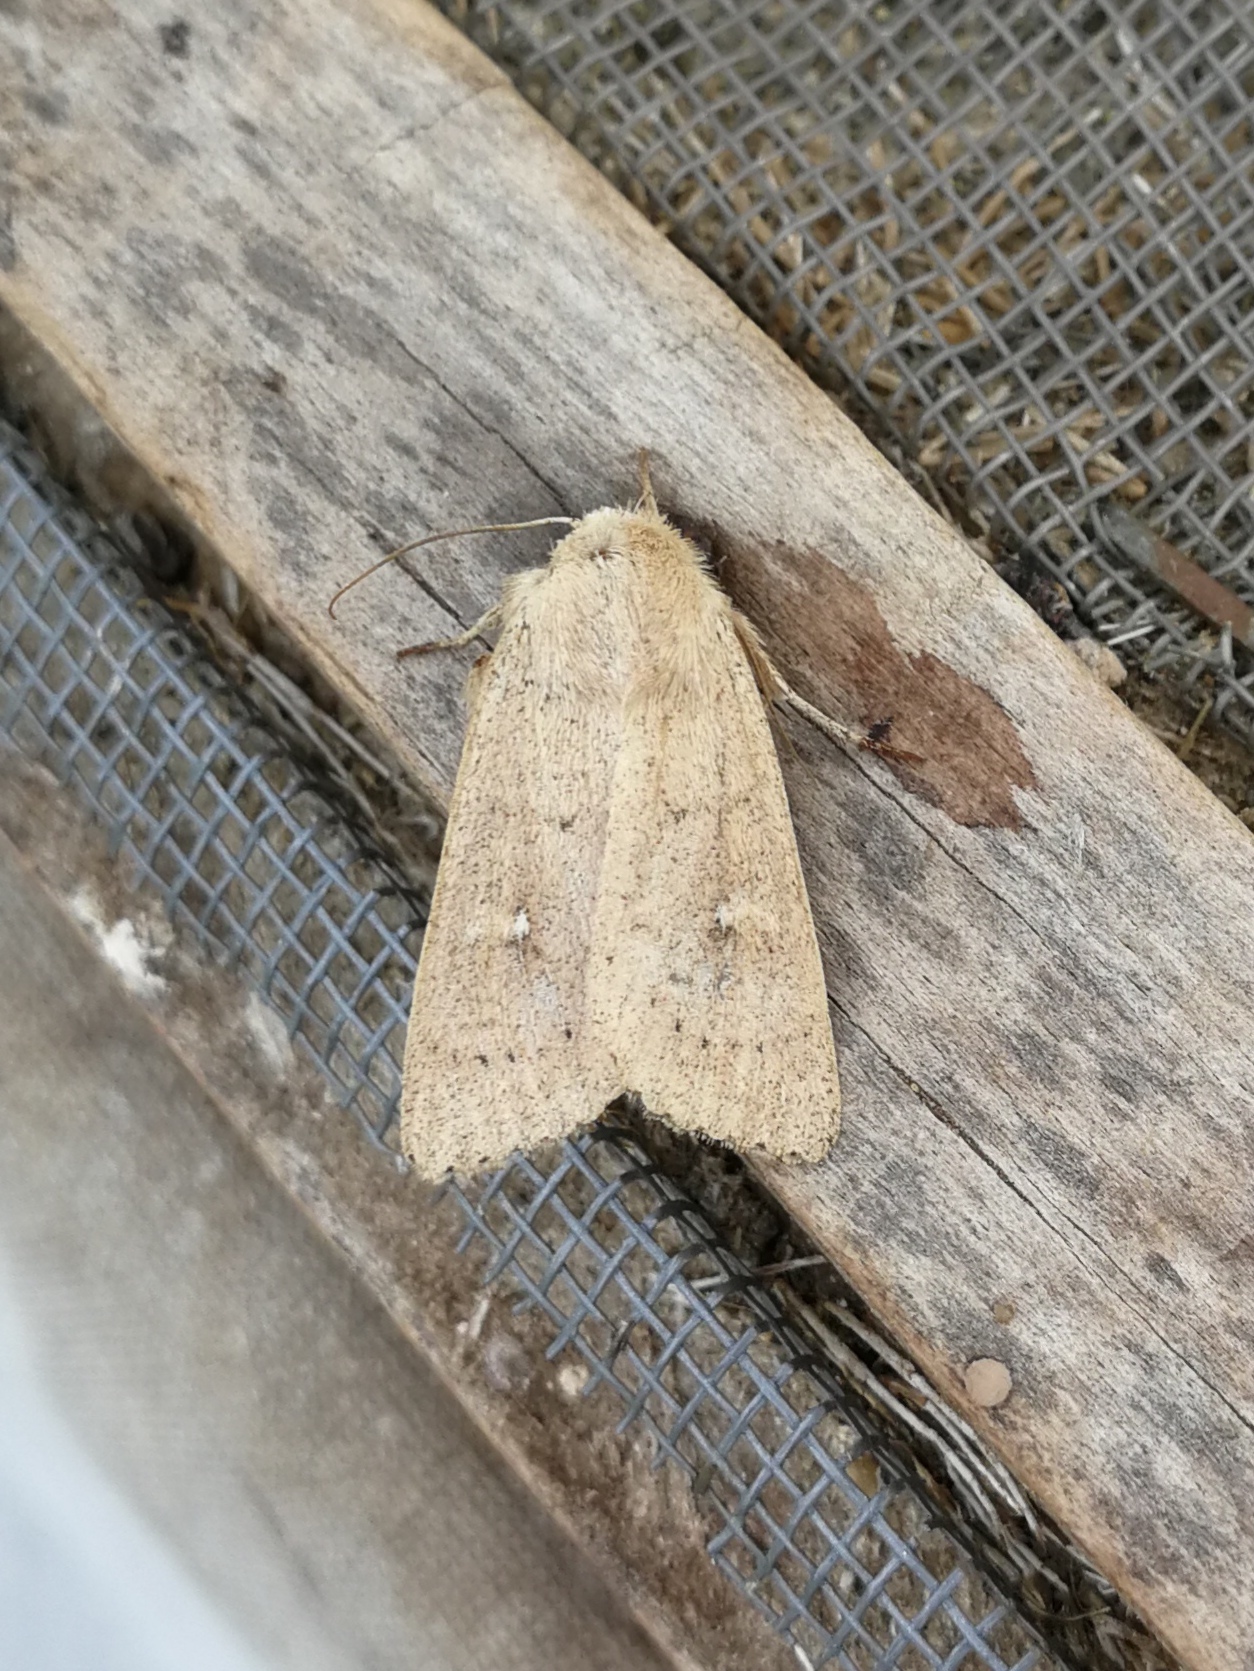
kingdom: Animalia
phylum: Arthropoda
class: Insecta
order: Lepidoptera
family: Noctuidae
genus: Mythimna
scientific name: Mythimna ferrago
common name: Clay
